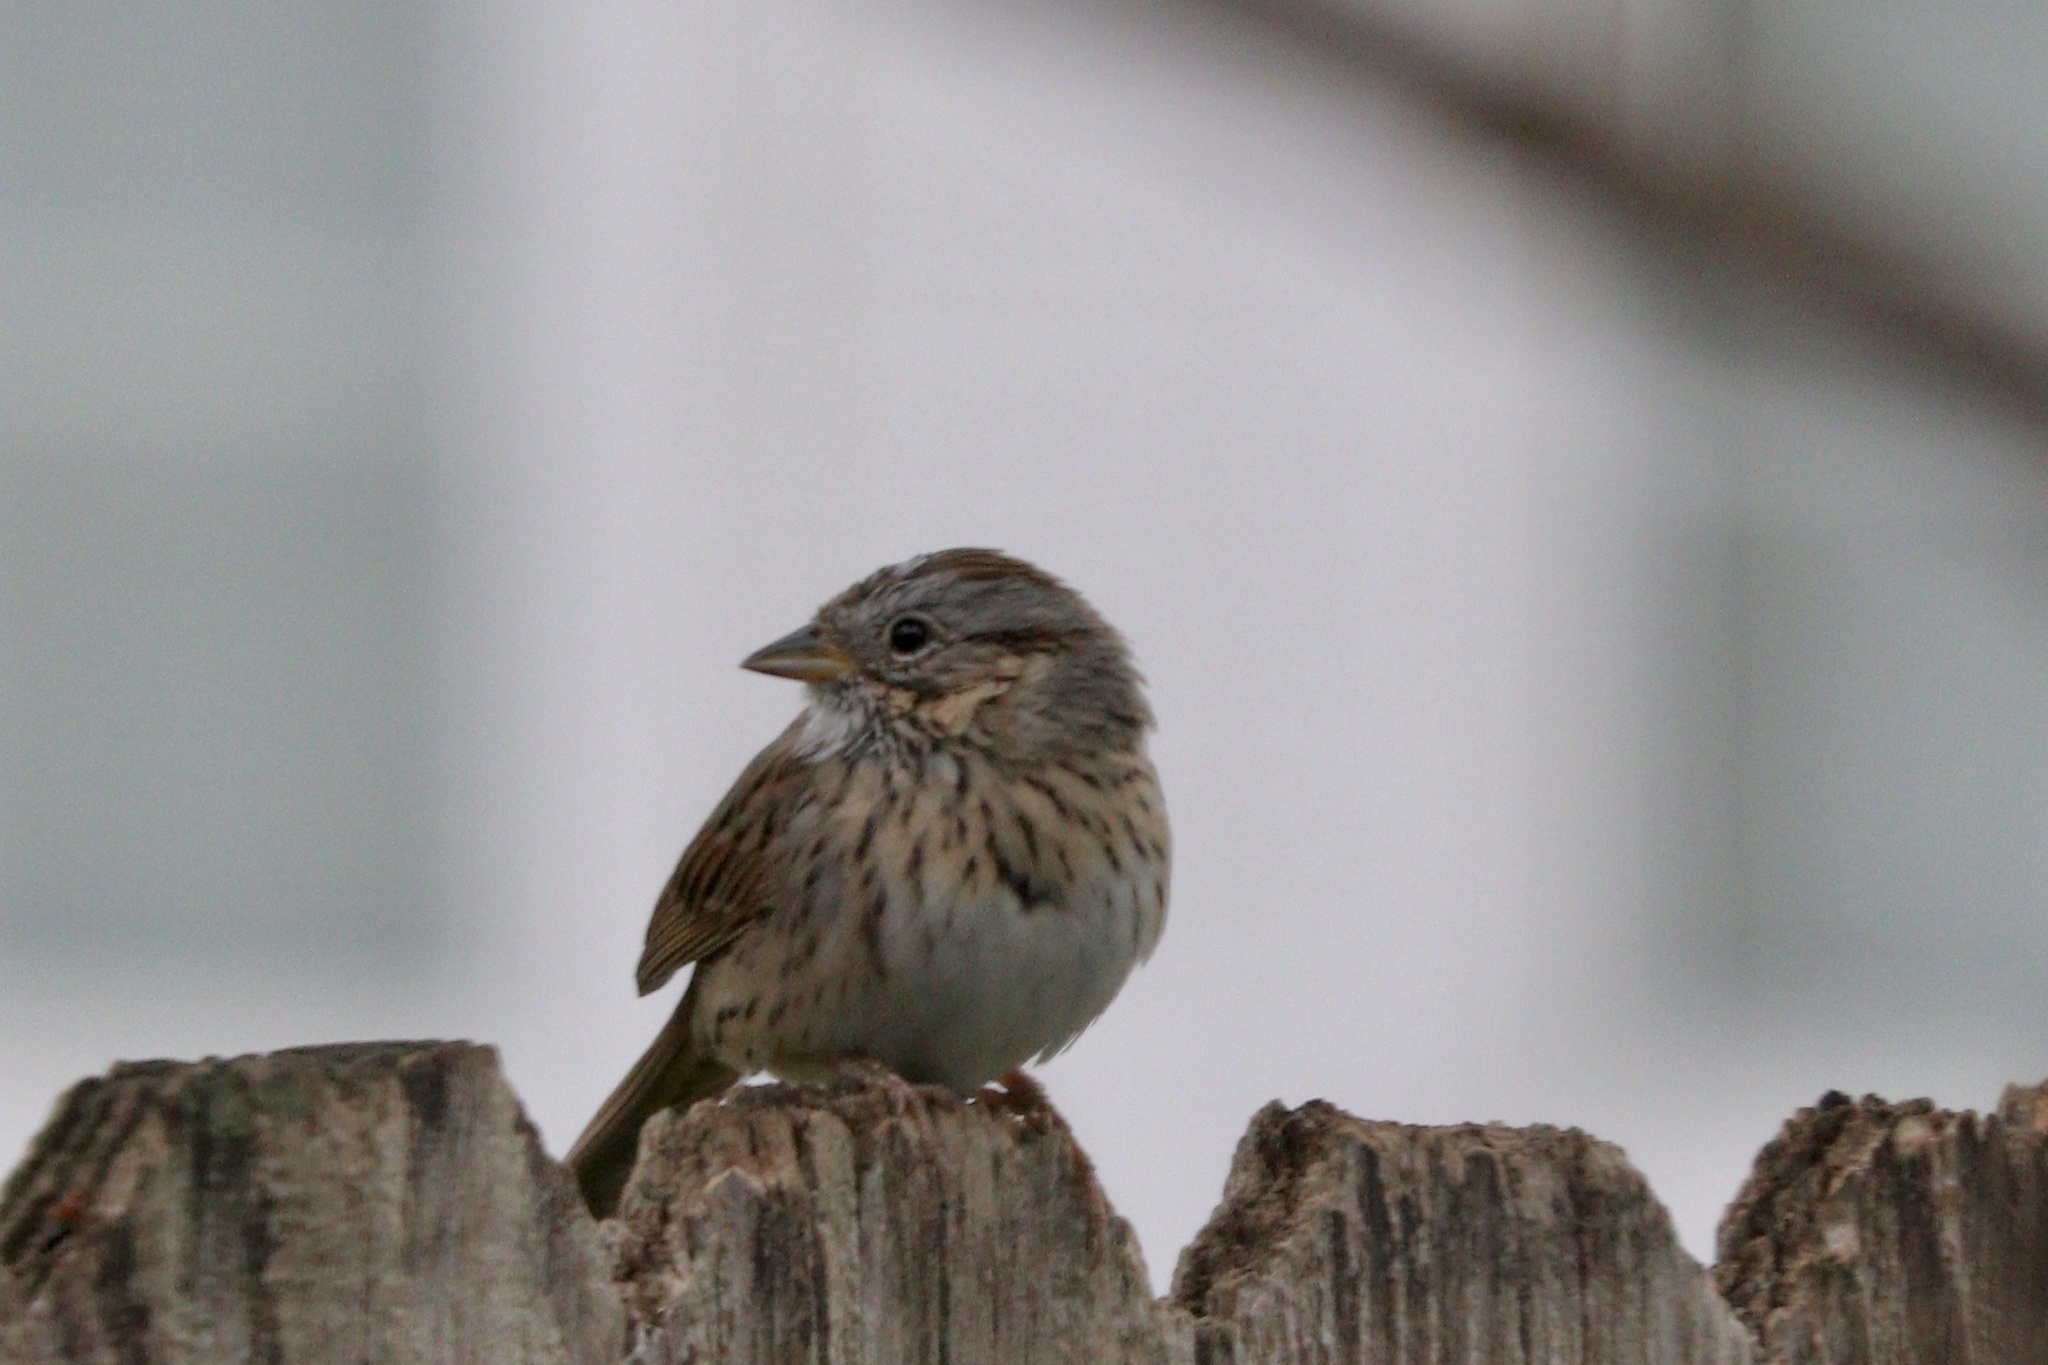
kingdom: Animalia
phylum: Chordata
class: Aves
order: Passeriformes
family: Passerellidae
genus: Melospiza
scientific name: Melospiza lincolnii
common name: Lincoln's sparrow
